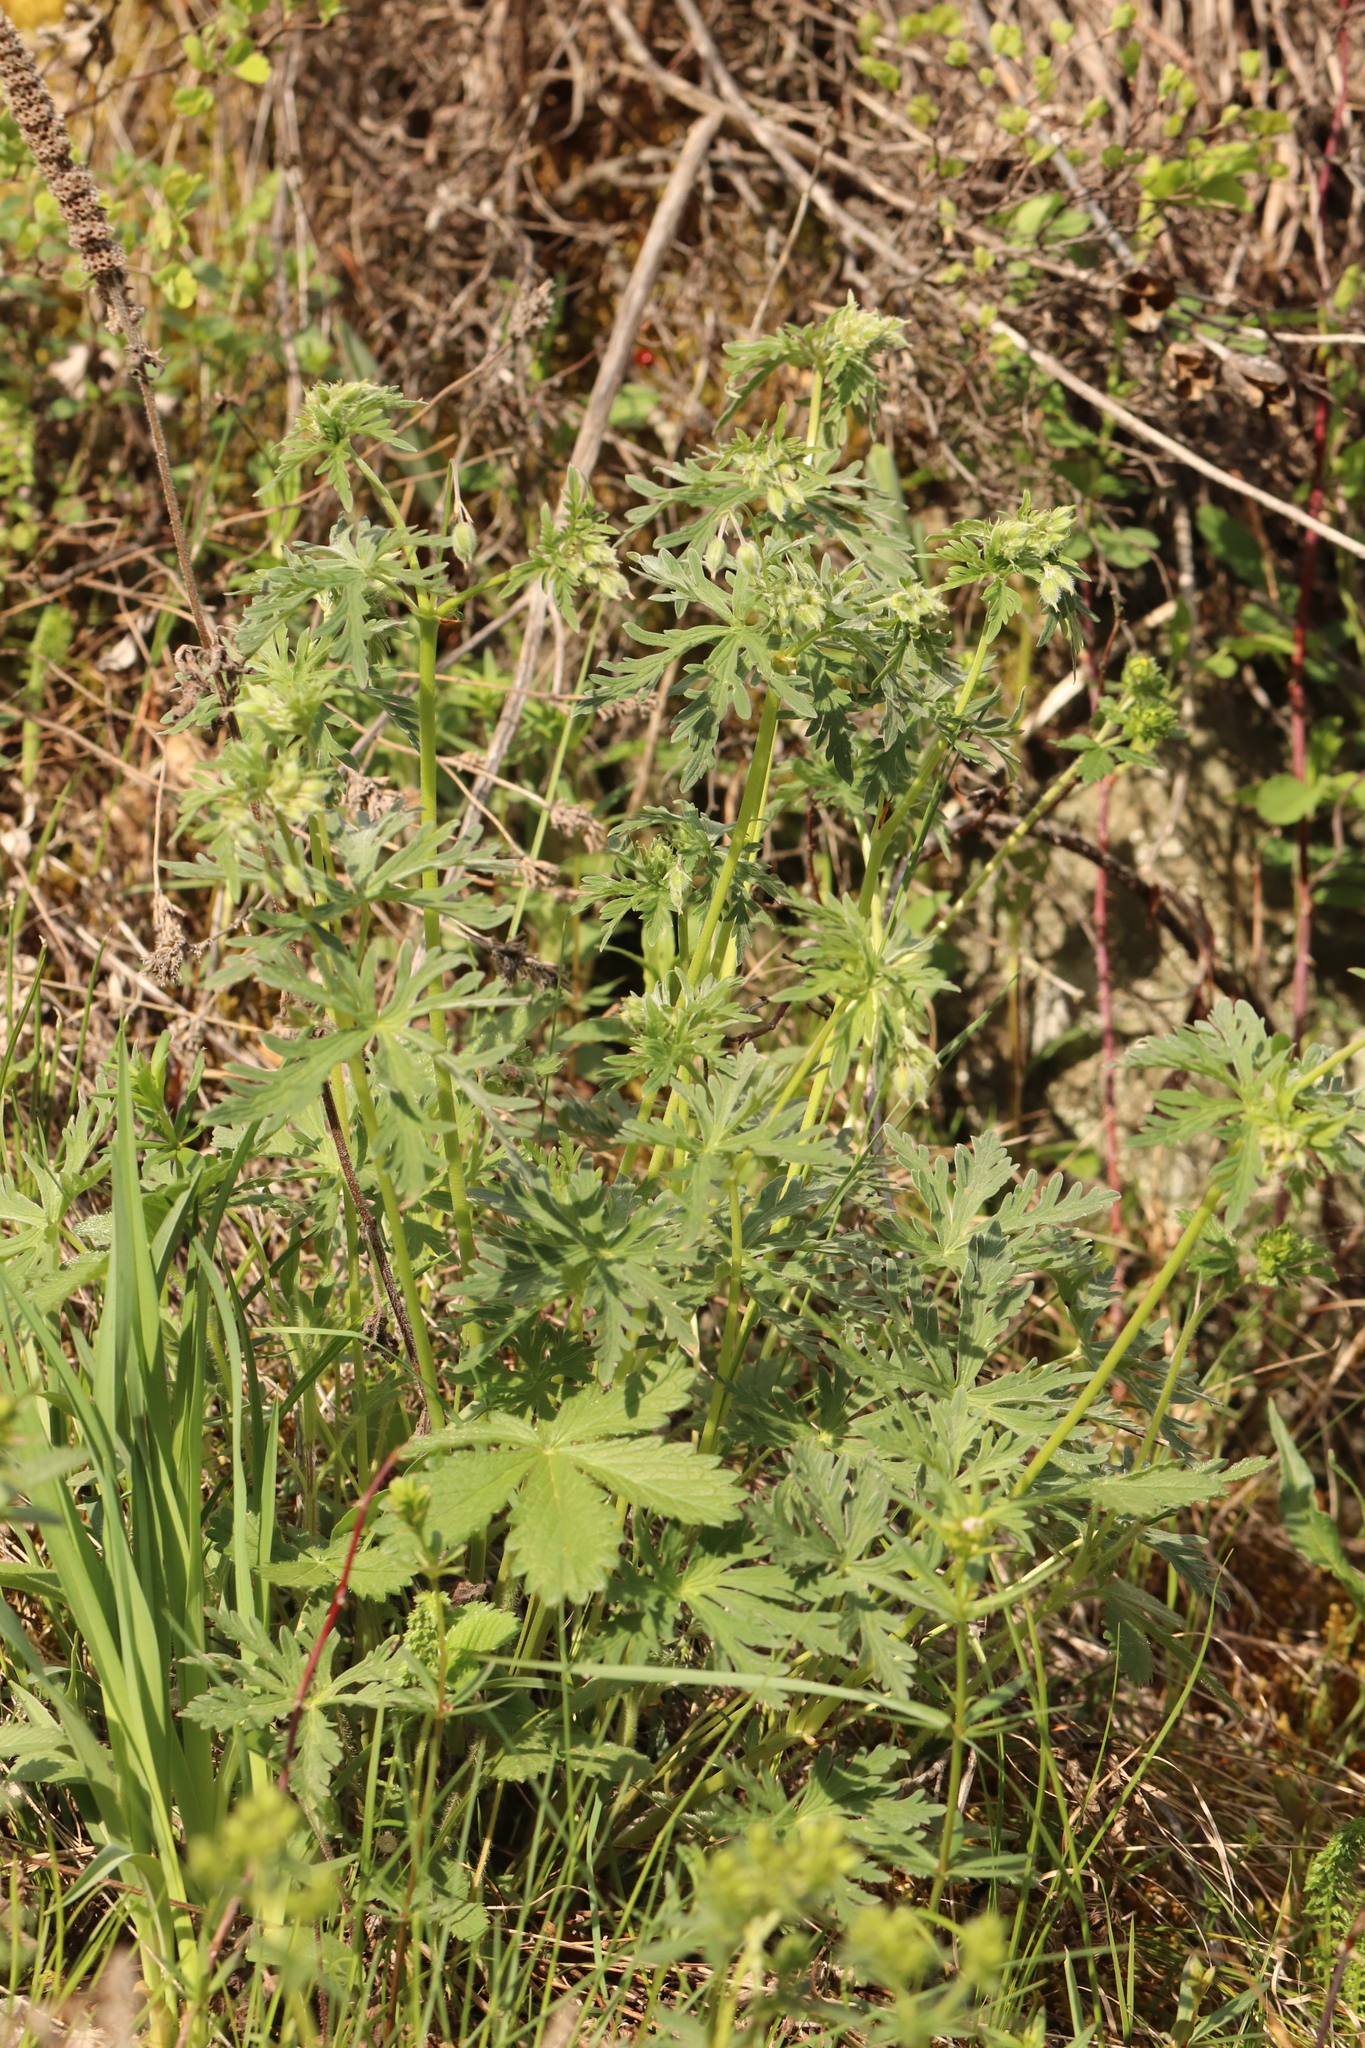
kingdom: Plantae
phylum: Tracheophyta
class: Magnoliopsida
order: Geraniales
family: Geraniaceae
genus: Geranium
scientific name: Geranium pratense
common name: Meadow crane's-bill
